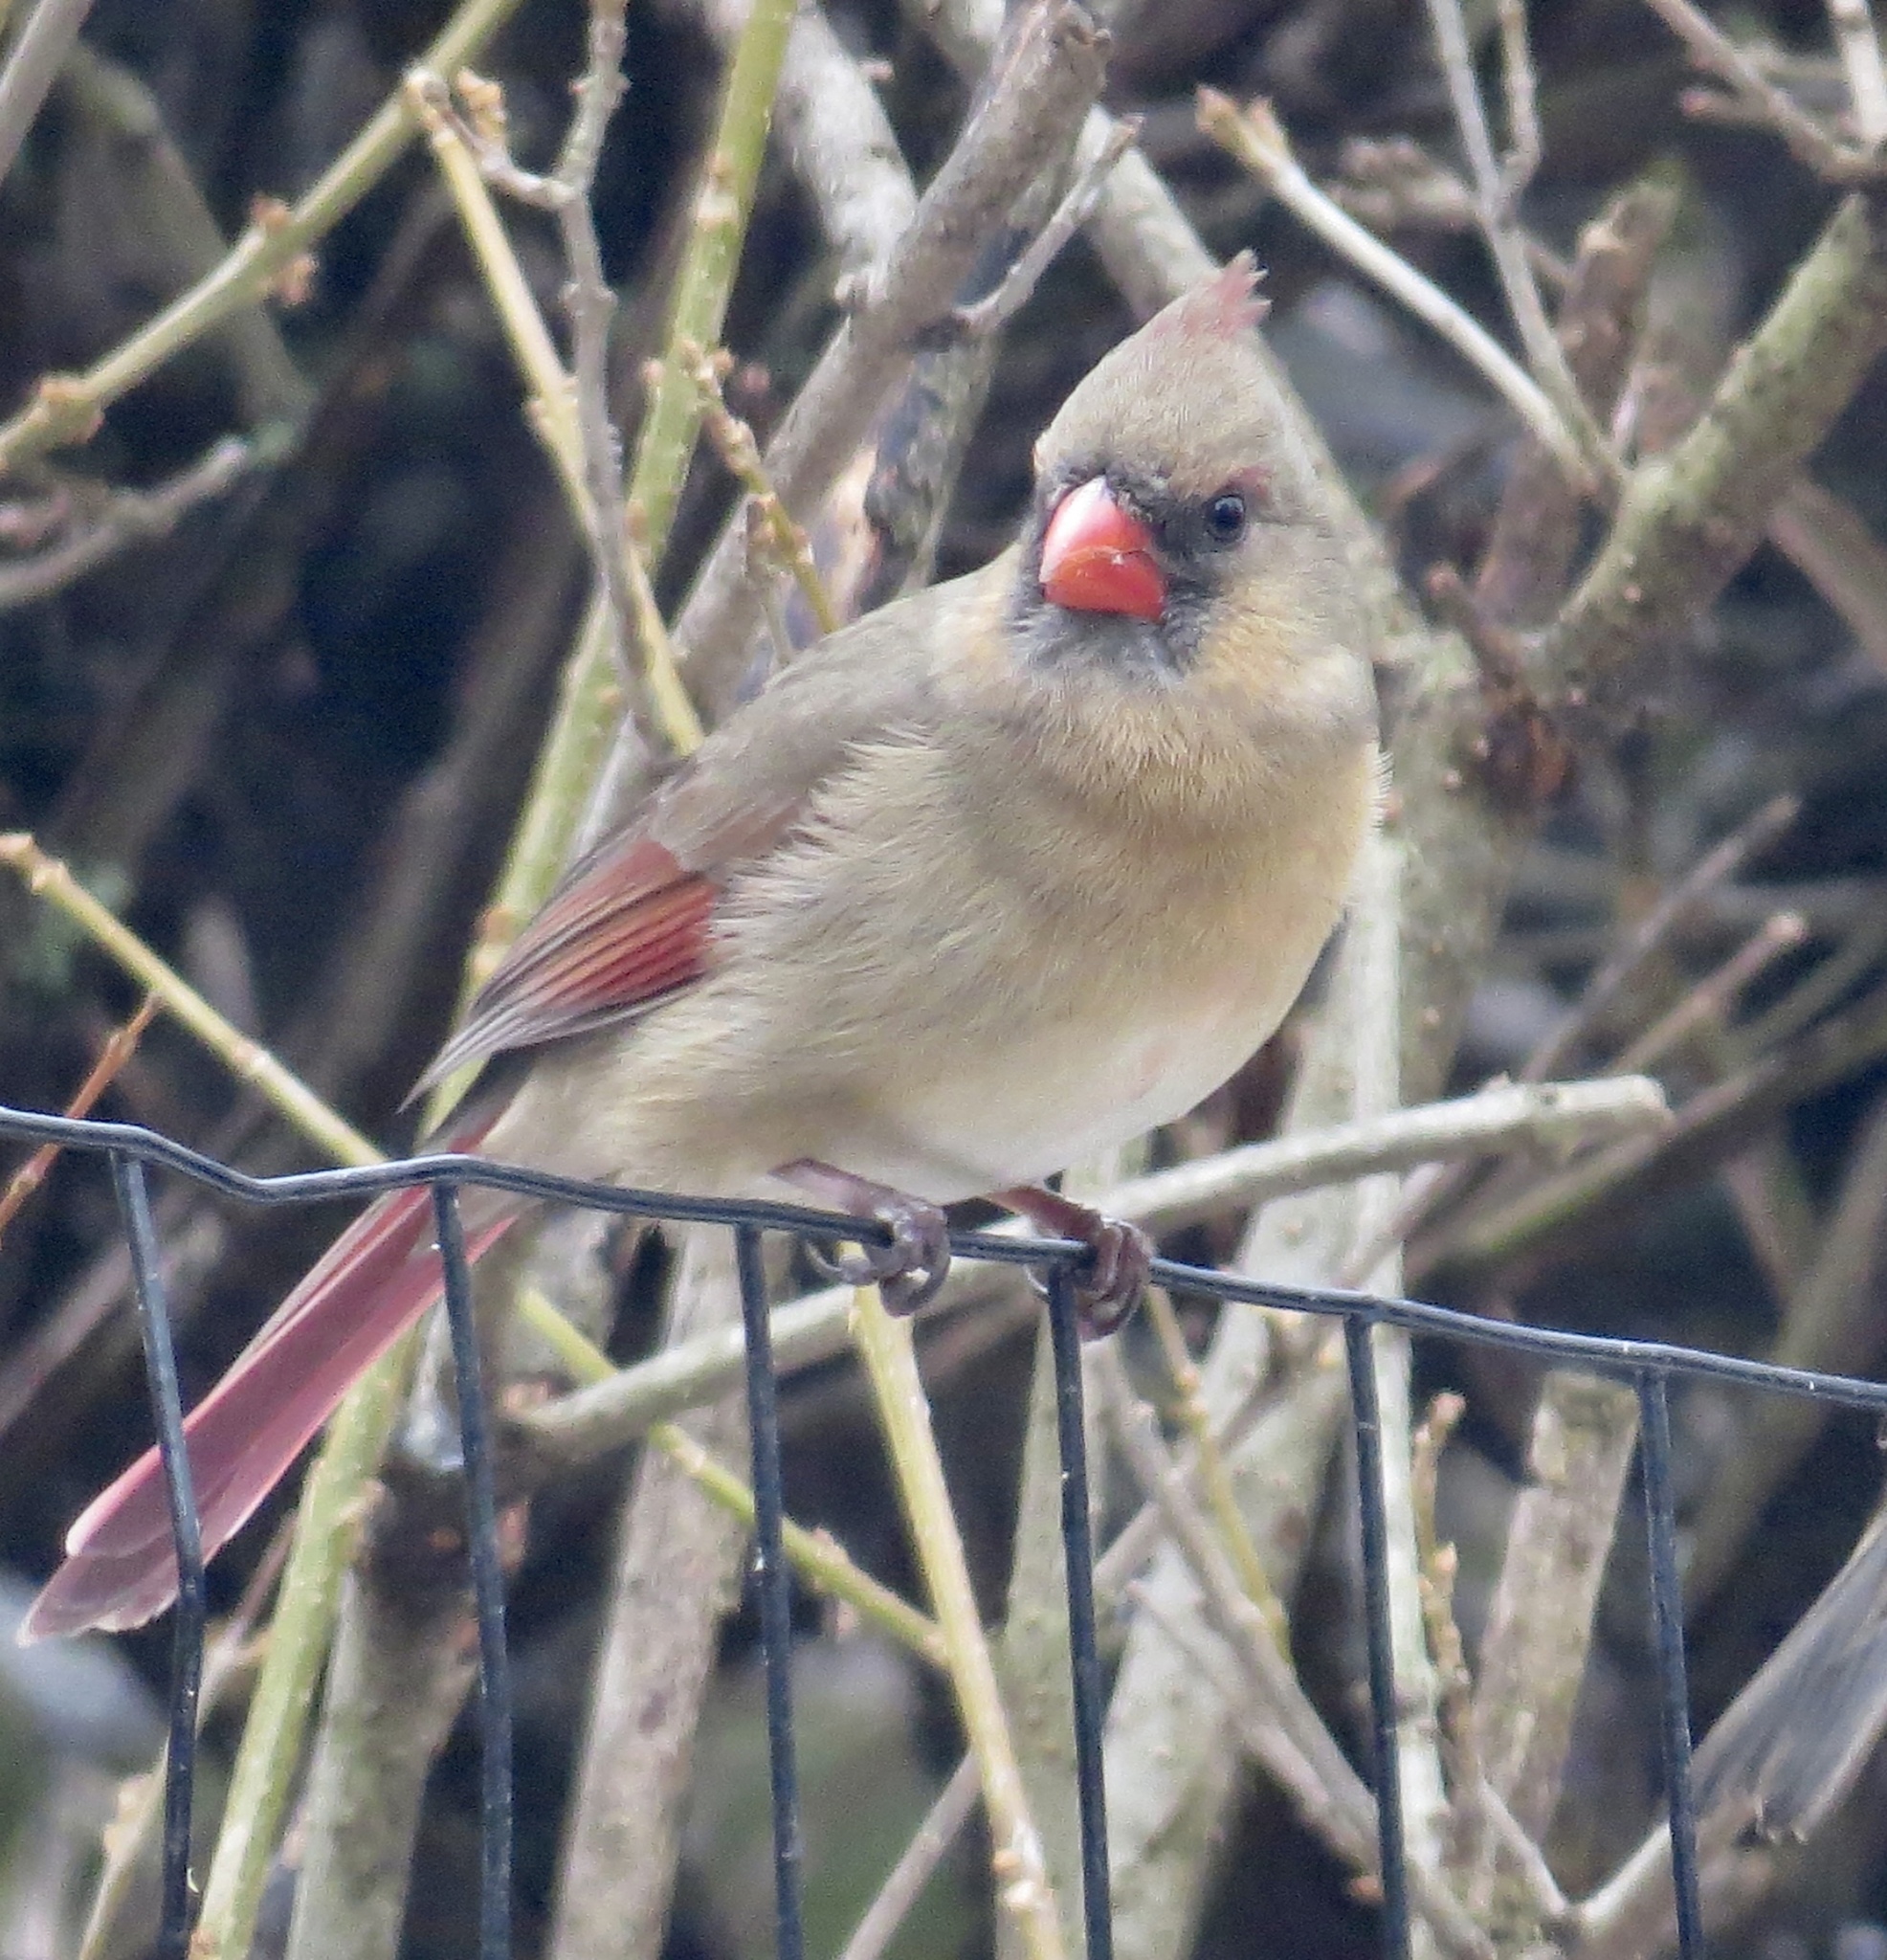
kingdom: Animalia
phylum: Chordata
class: Aves
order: Passeriformes
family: Cardinalidae
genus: Cardinalis
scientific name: Cardinalis cardinalis
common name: Northern cardinal
